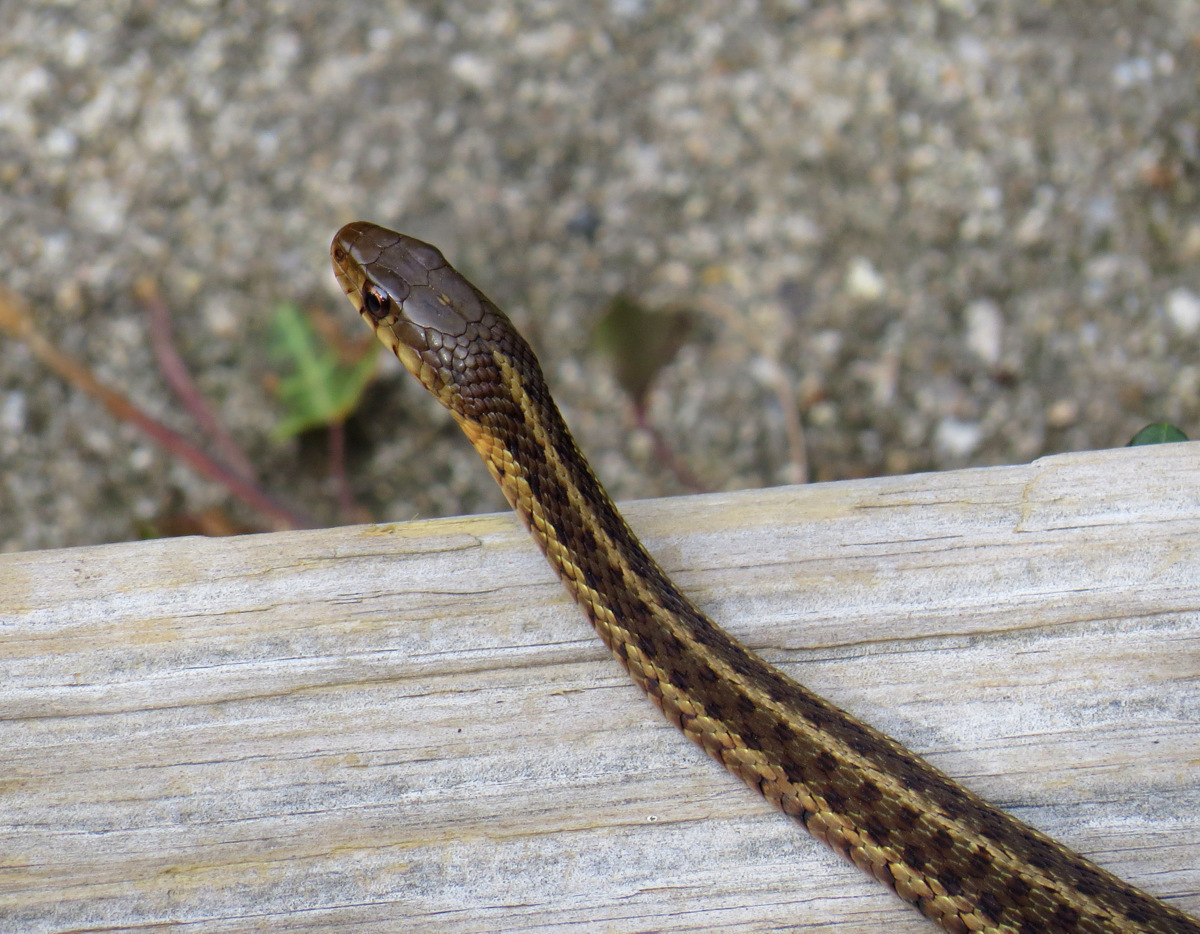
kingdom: Animalia
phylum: Chordata
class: Squamata
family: Colubridae
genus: Thamnophis
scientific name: Thamnophis sirtalis
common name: Common garter snake
